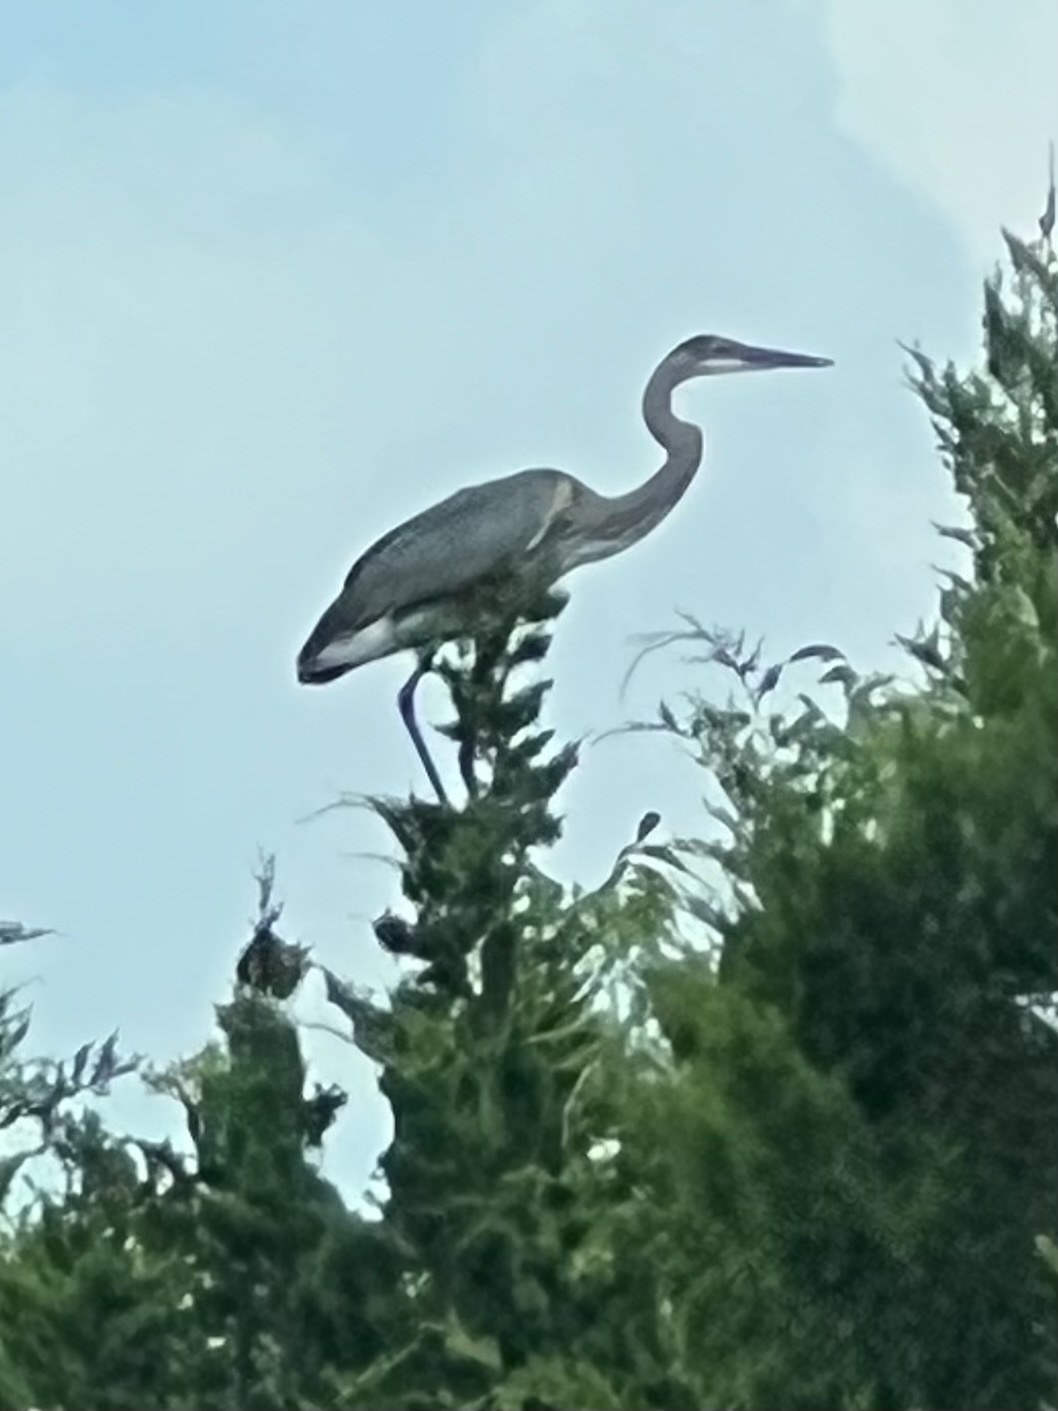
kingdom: Animalia
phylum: Chordata
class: Aves
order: Pelecaniformes
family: Ardeidae
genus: Ardea
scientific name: Ardea herodias
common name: Great blue heron
